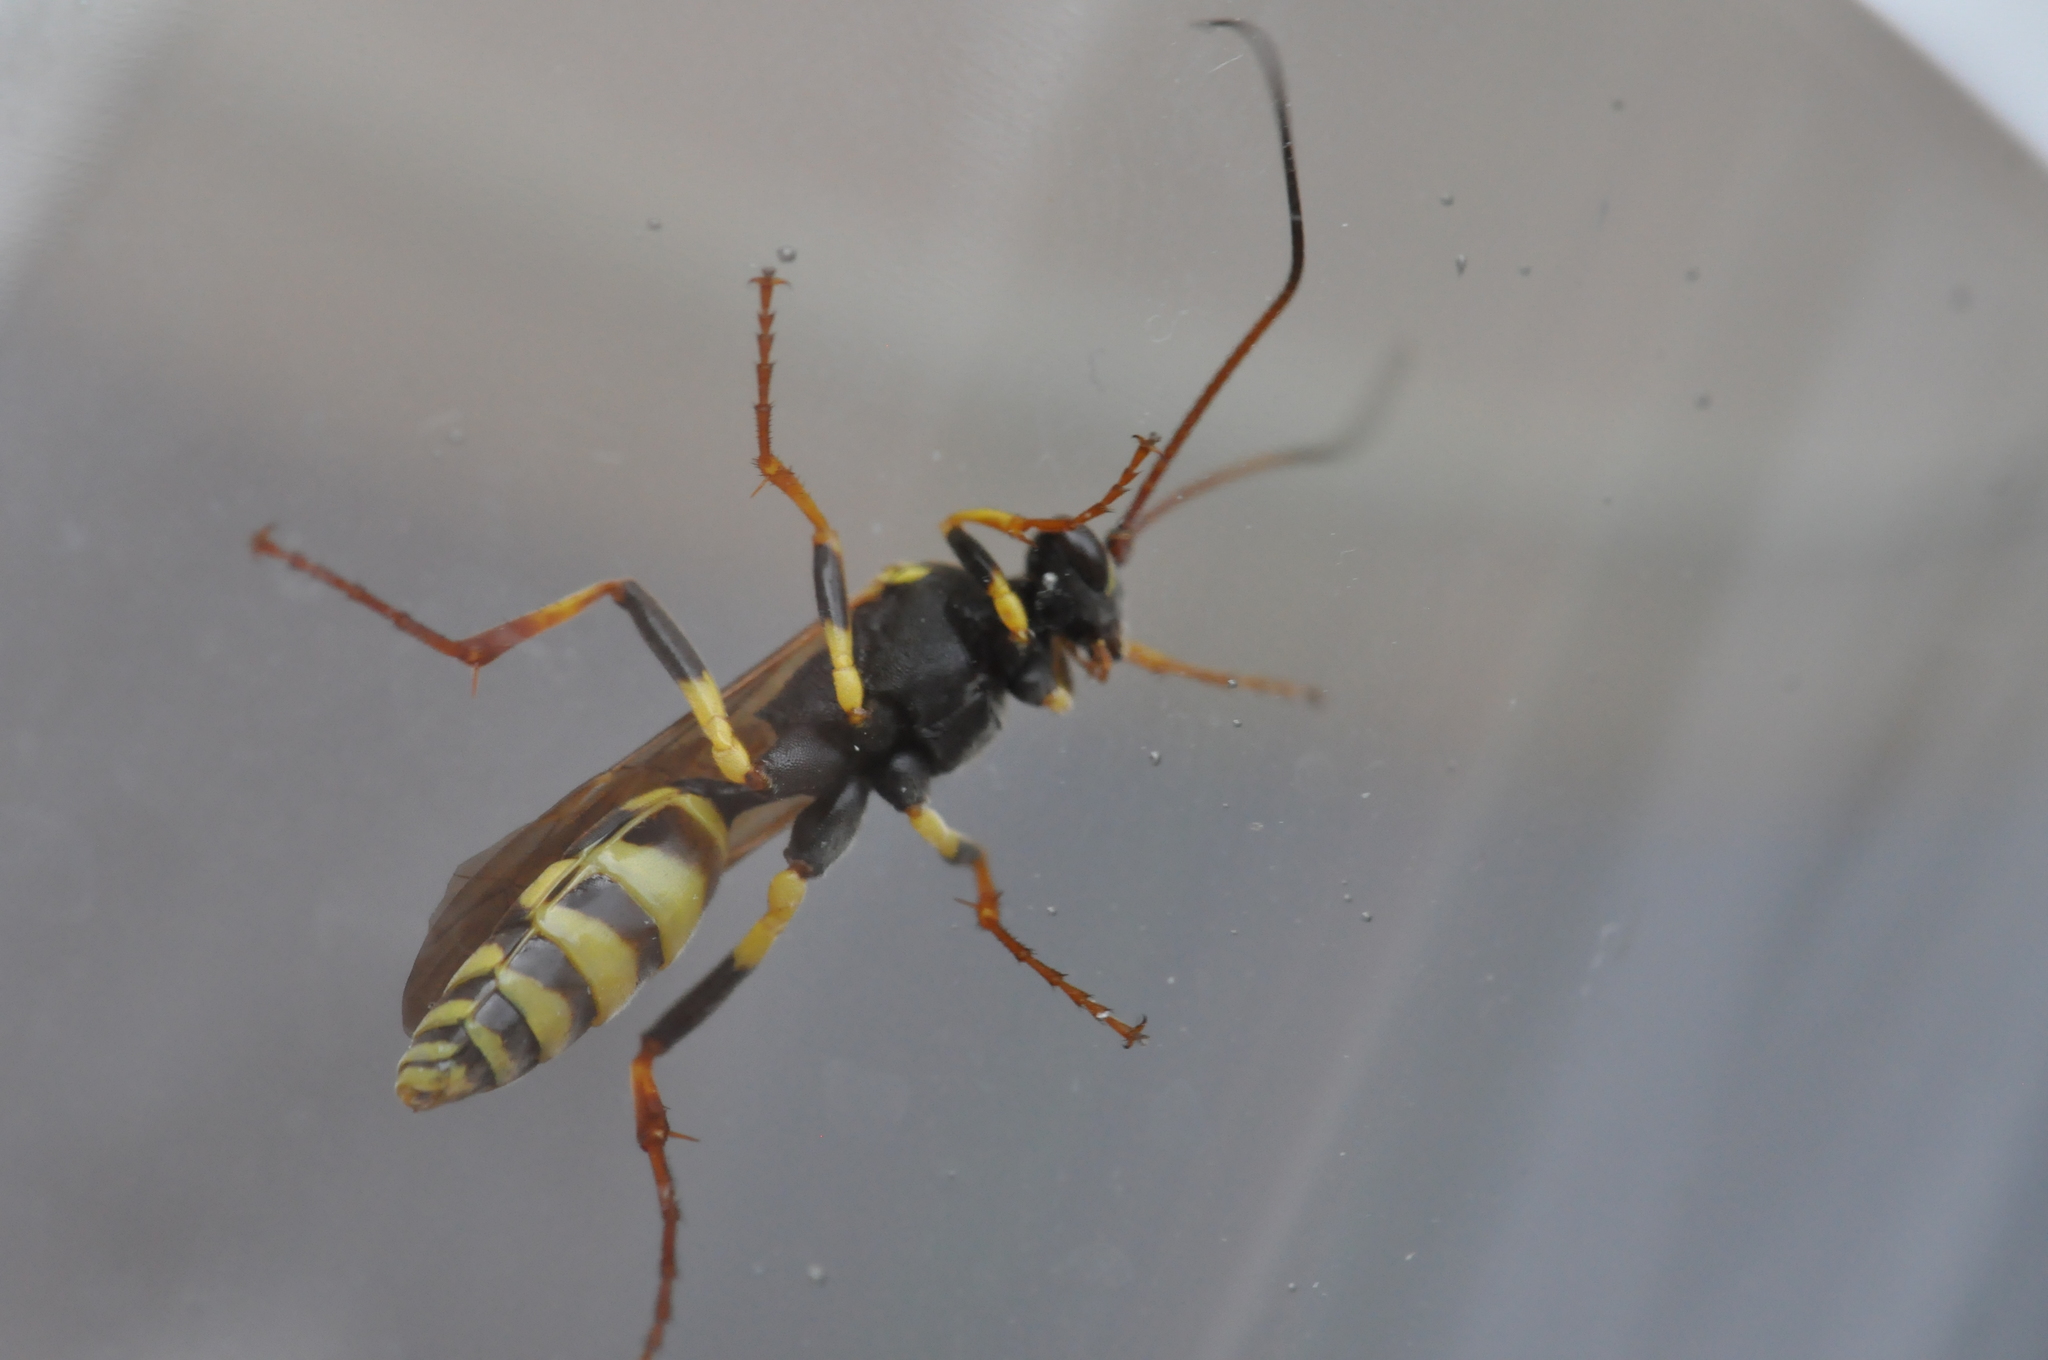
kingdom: Animalia
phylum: Arthropoda
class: Insecta
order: Hymenoptera
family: Ichneumonidae
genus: Amblyteles
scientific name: Amblyteles armatorius
